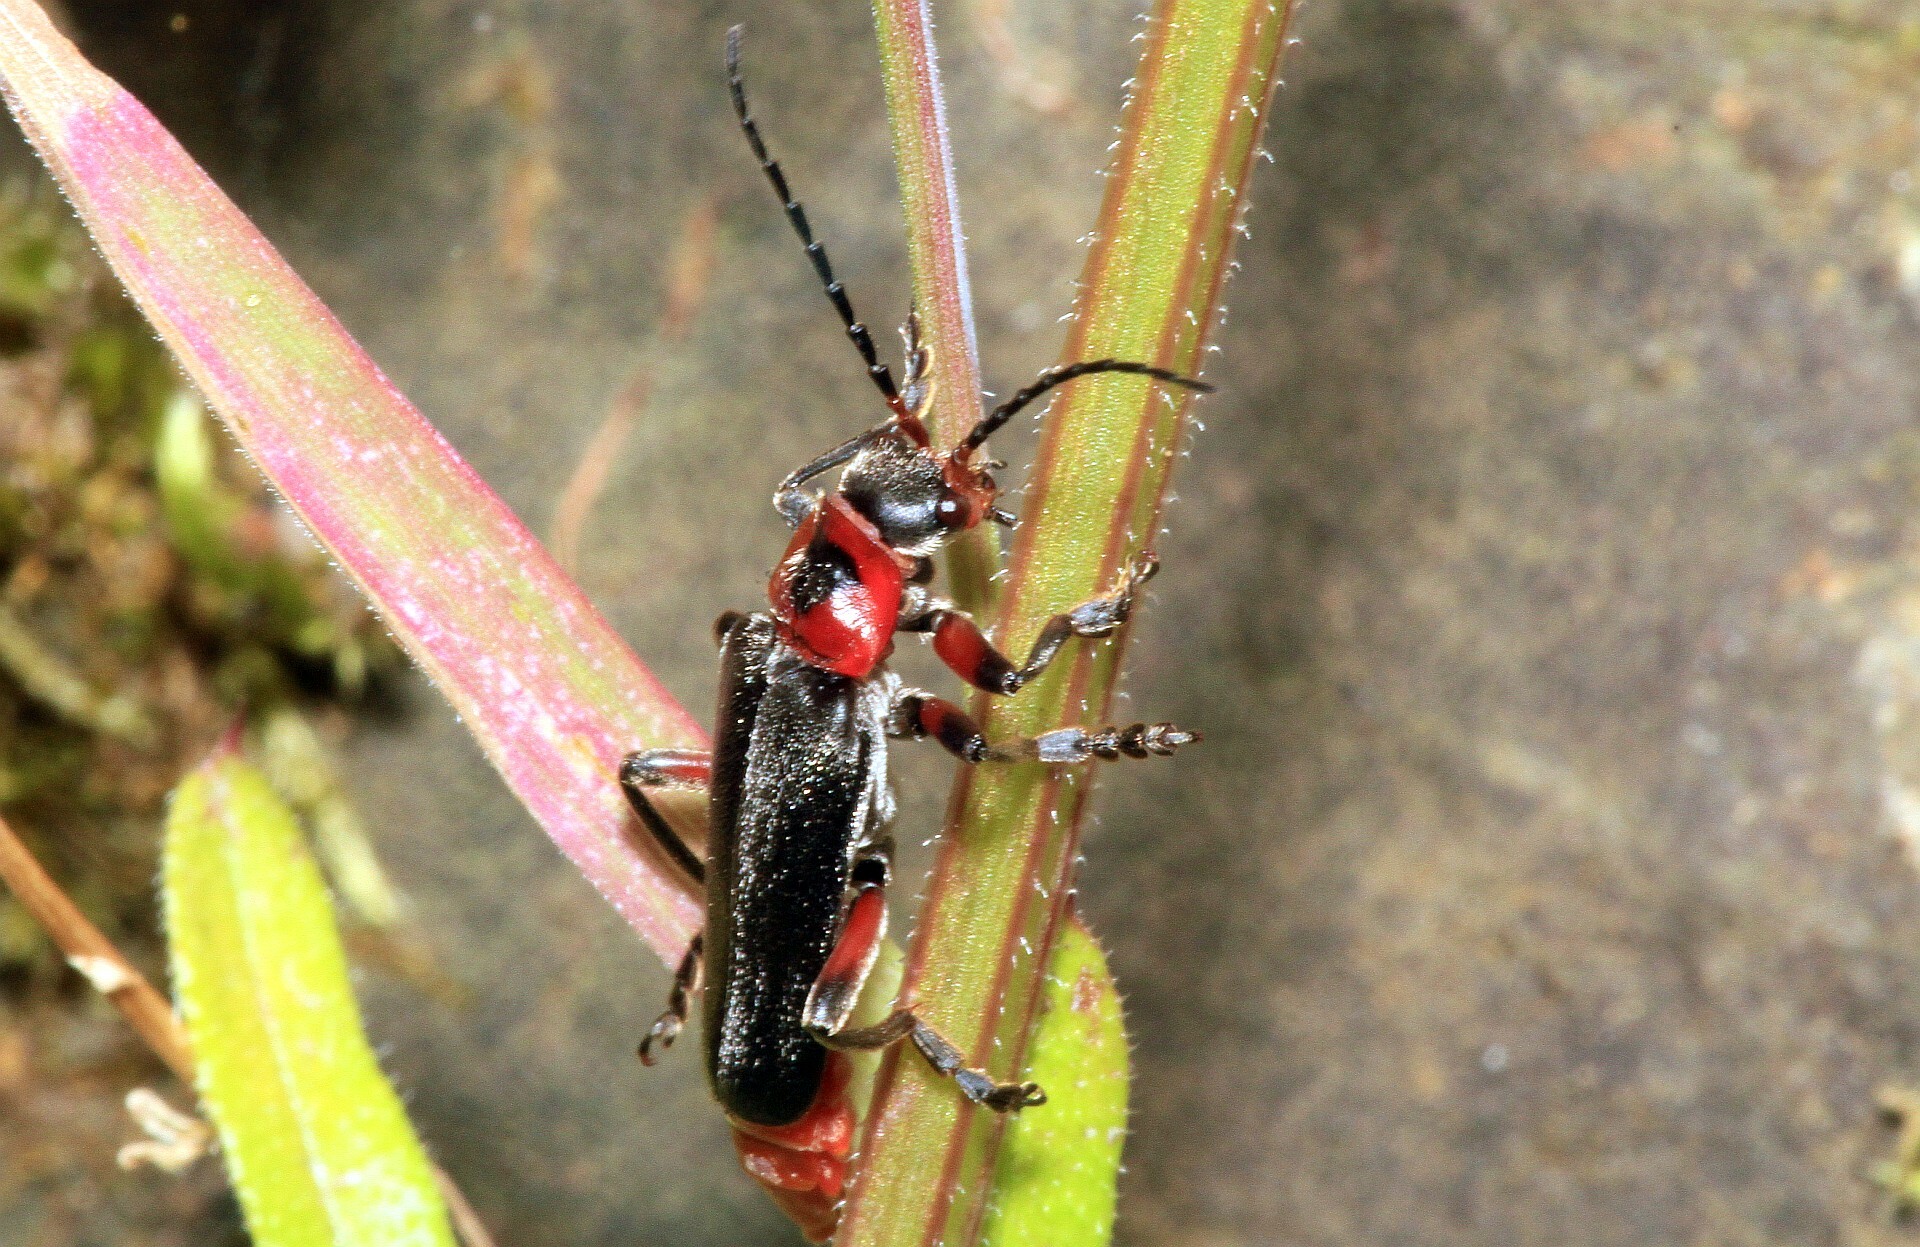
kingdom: Animalia
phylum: Arthropoda
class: Insecta
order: Coleoptera
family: Cantharidae
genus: Cantharis
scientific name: Cantharis rustica
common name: Soldier beetle
